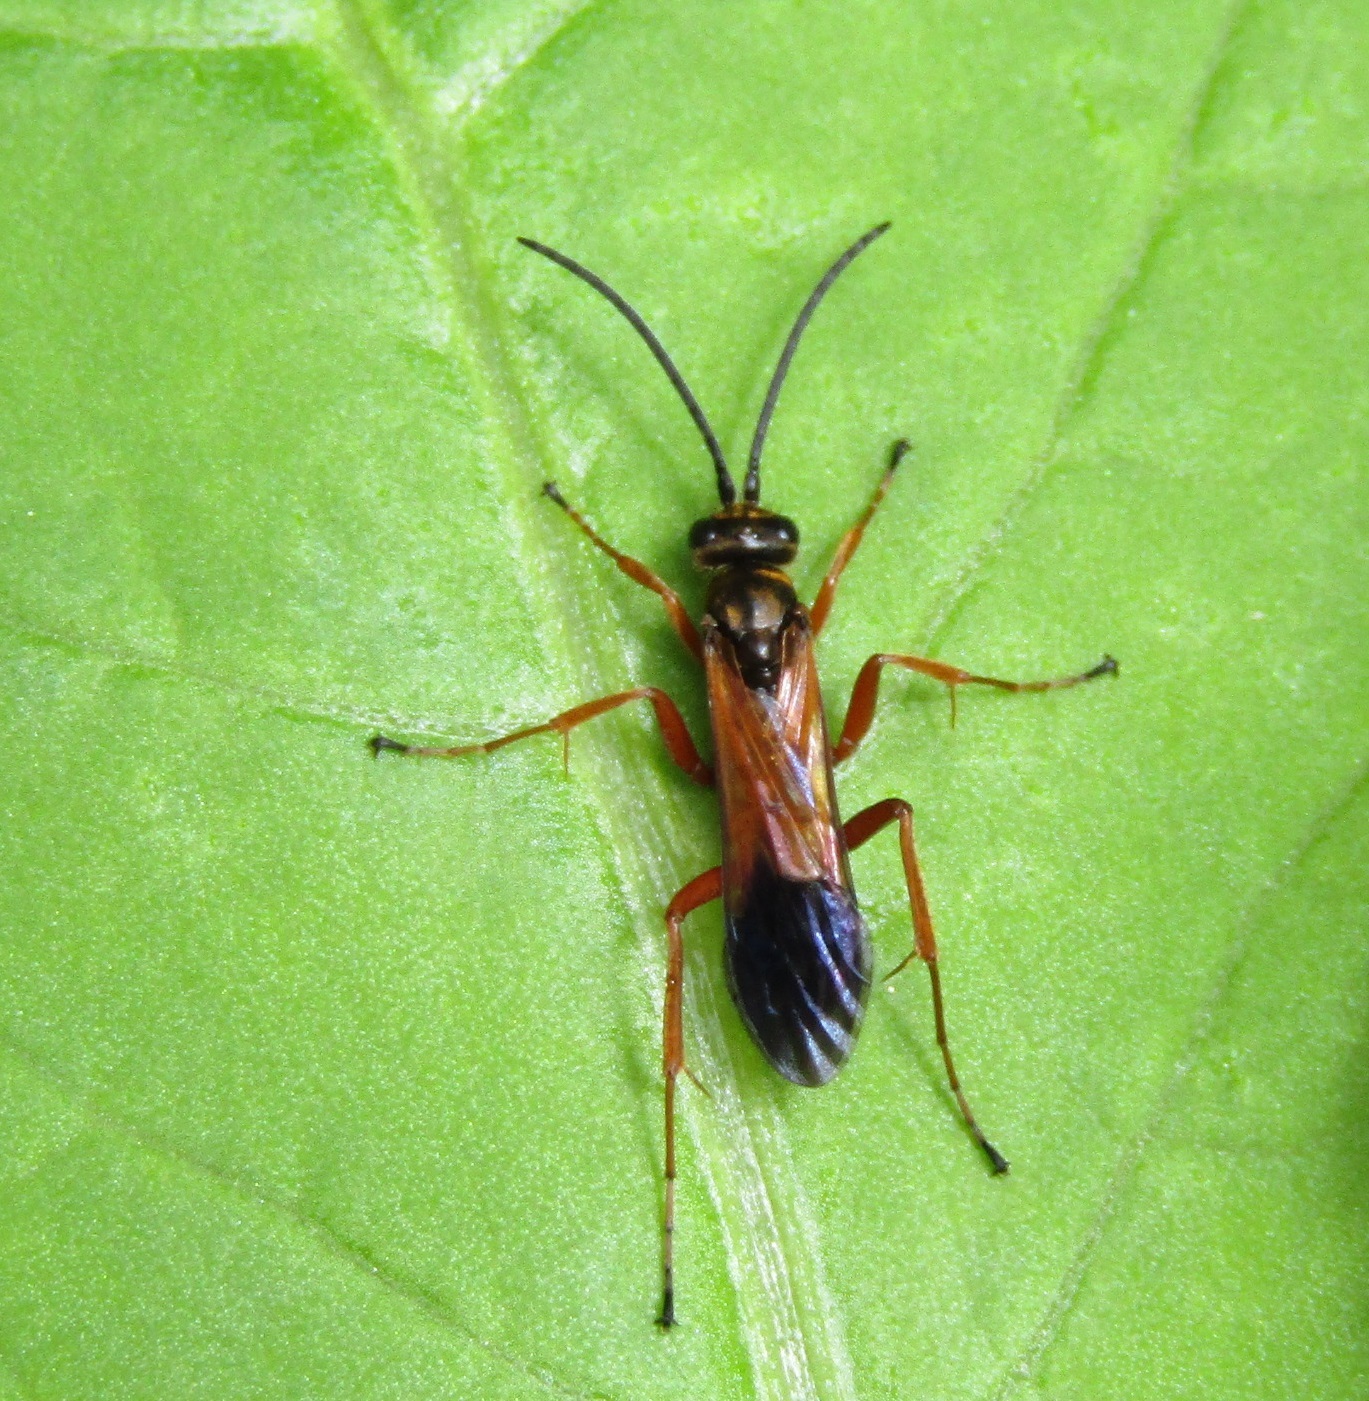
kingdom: Animalia
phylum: Arthropoda
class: Insecta
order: Hymenoptera
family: Pompilidae
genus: Priocnemis
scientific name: Priocnemis conformis
